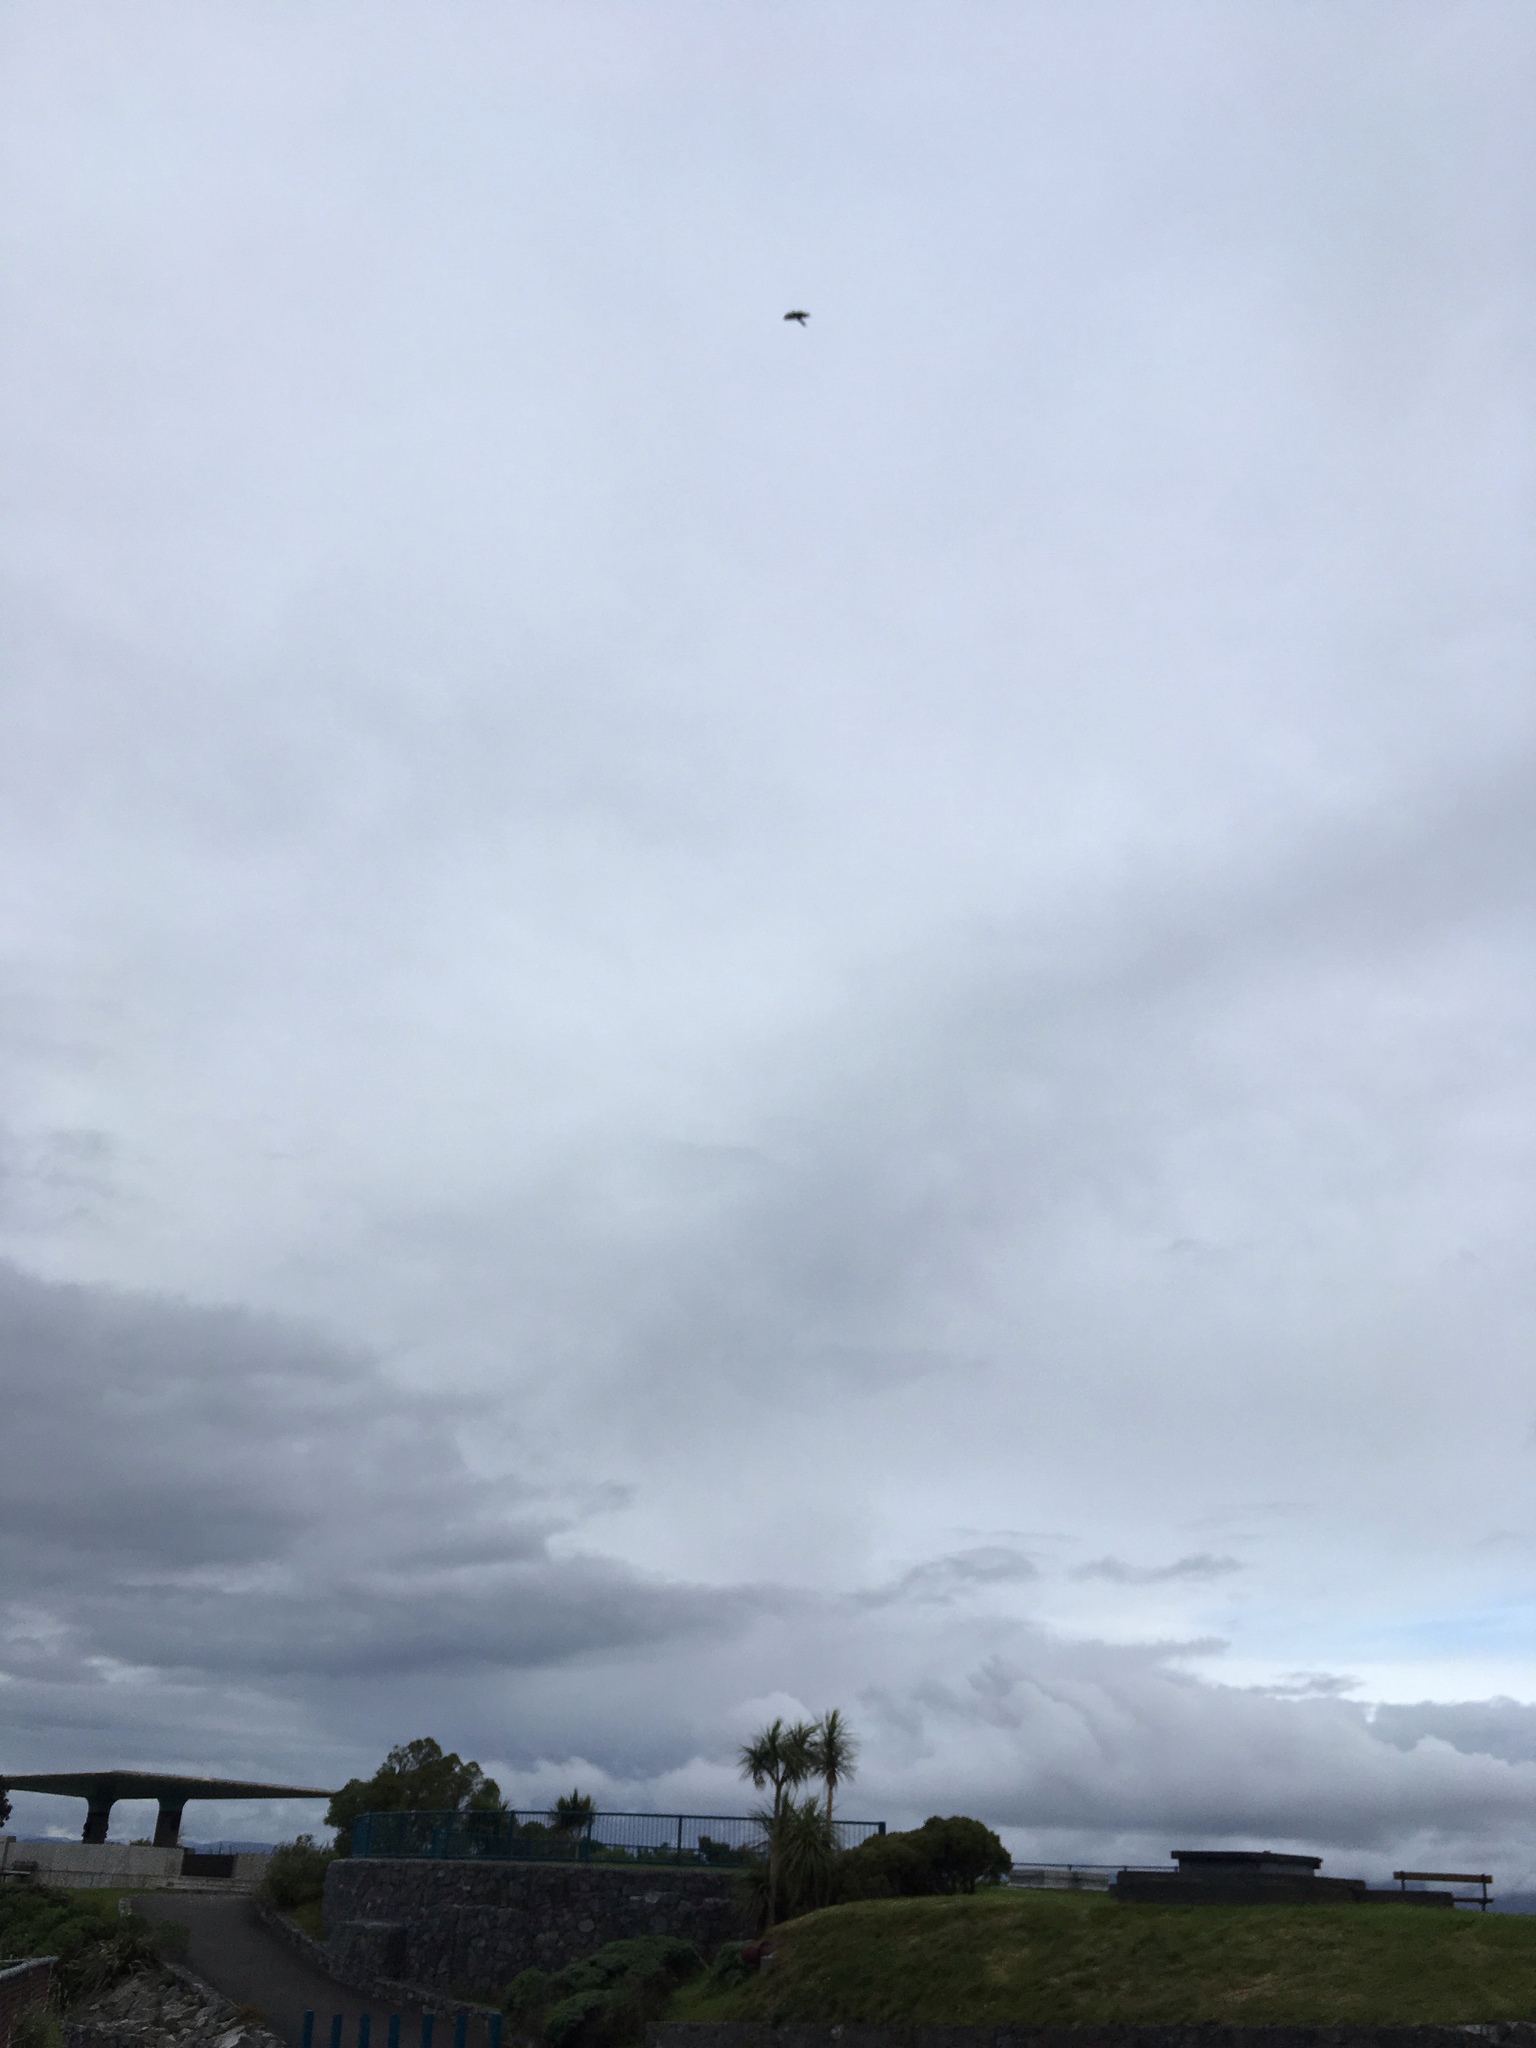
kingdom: Animalia
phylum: Chordata
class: Aves
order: Falconiformes
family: Falconidae
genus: Falco
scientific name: Falco novaeseelandiae
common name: New zealand falcon
